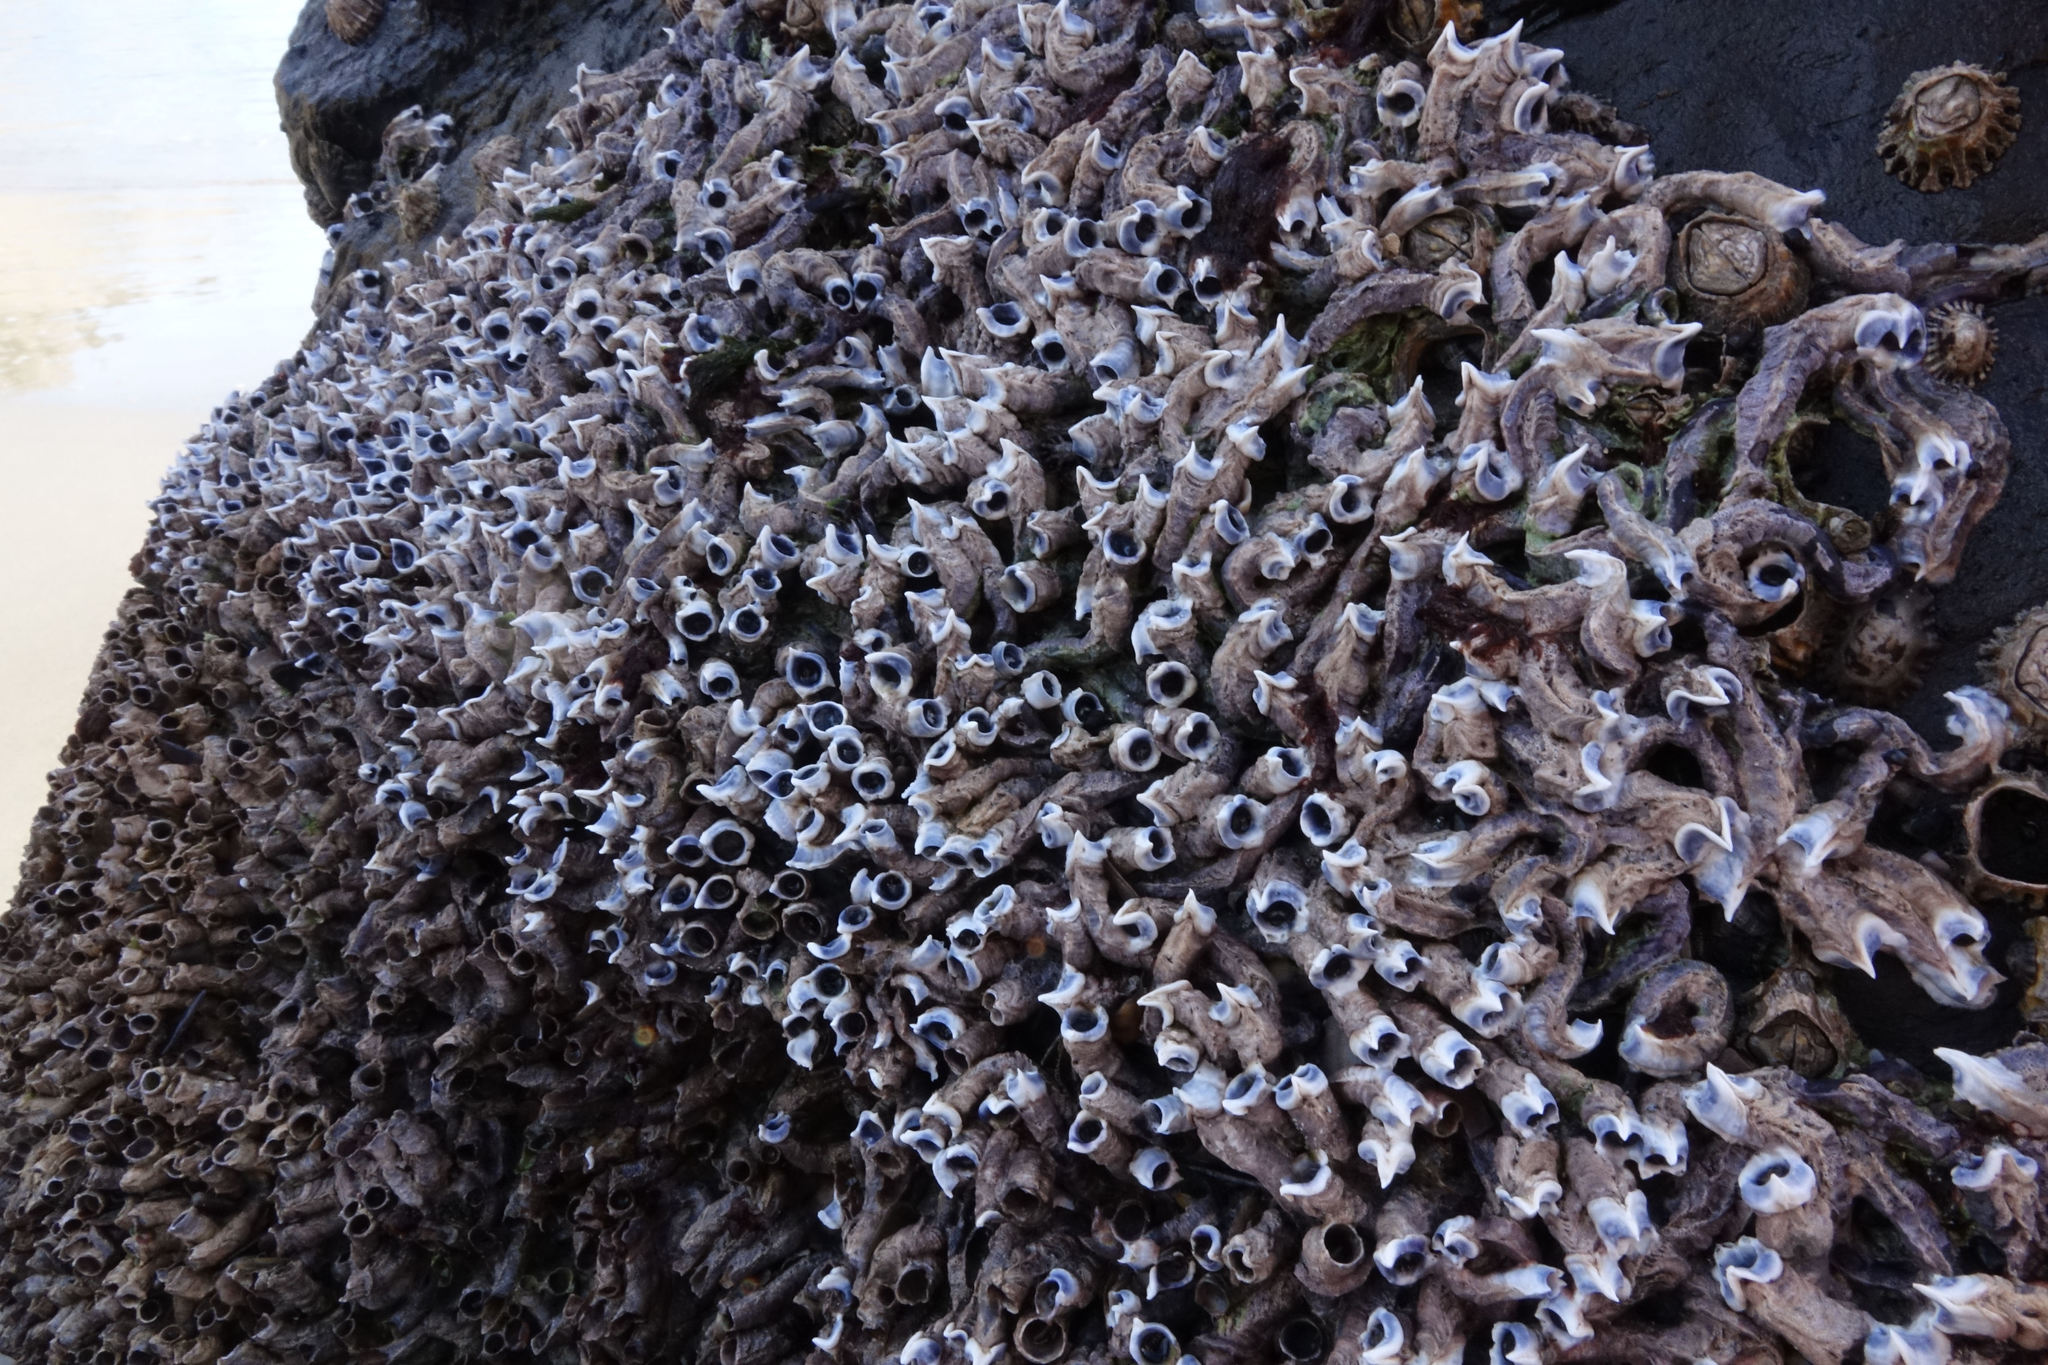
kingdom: Animalia
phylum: Annelida
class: Polychaeta
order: Sabellida
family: Serpulidae
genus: Spirobranchus
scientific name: Spirobranchus cariniferus
